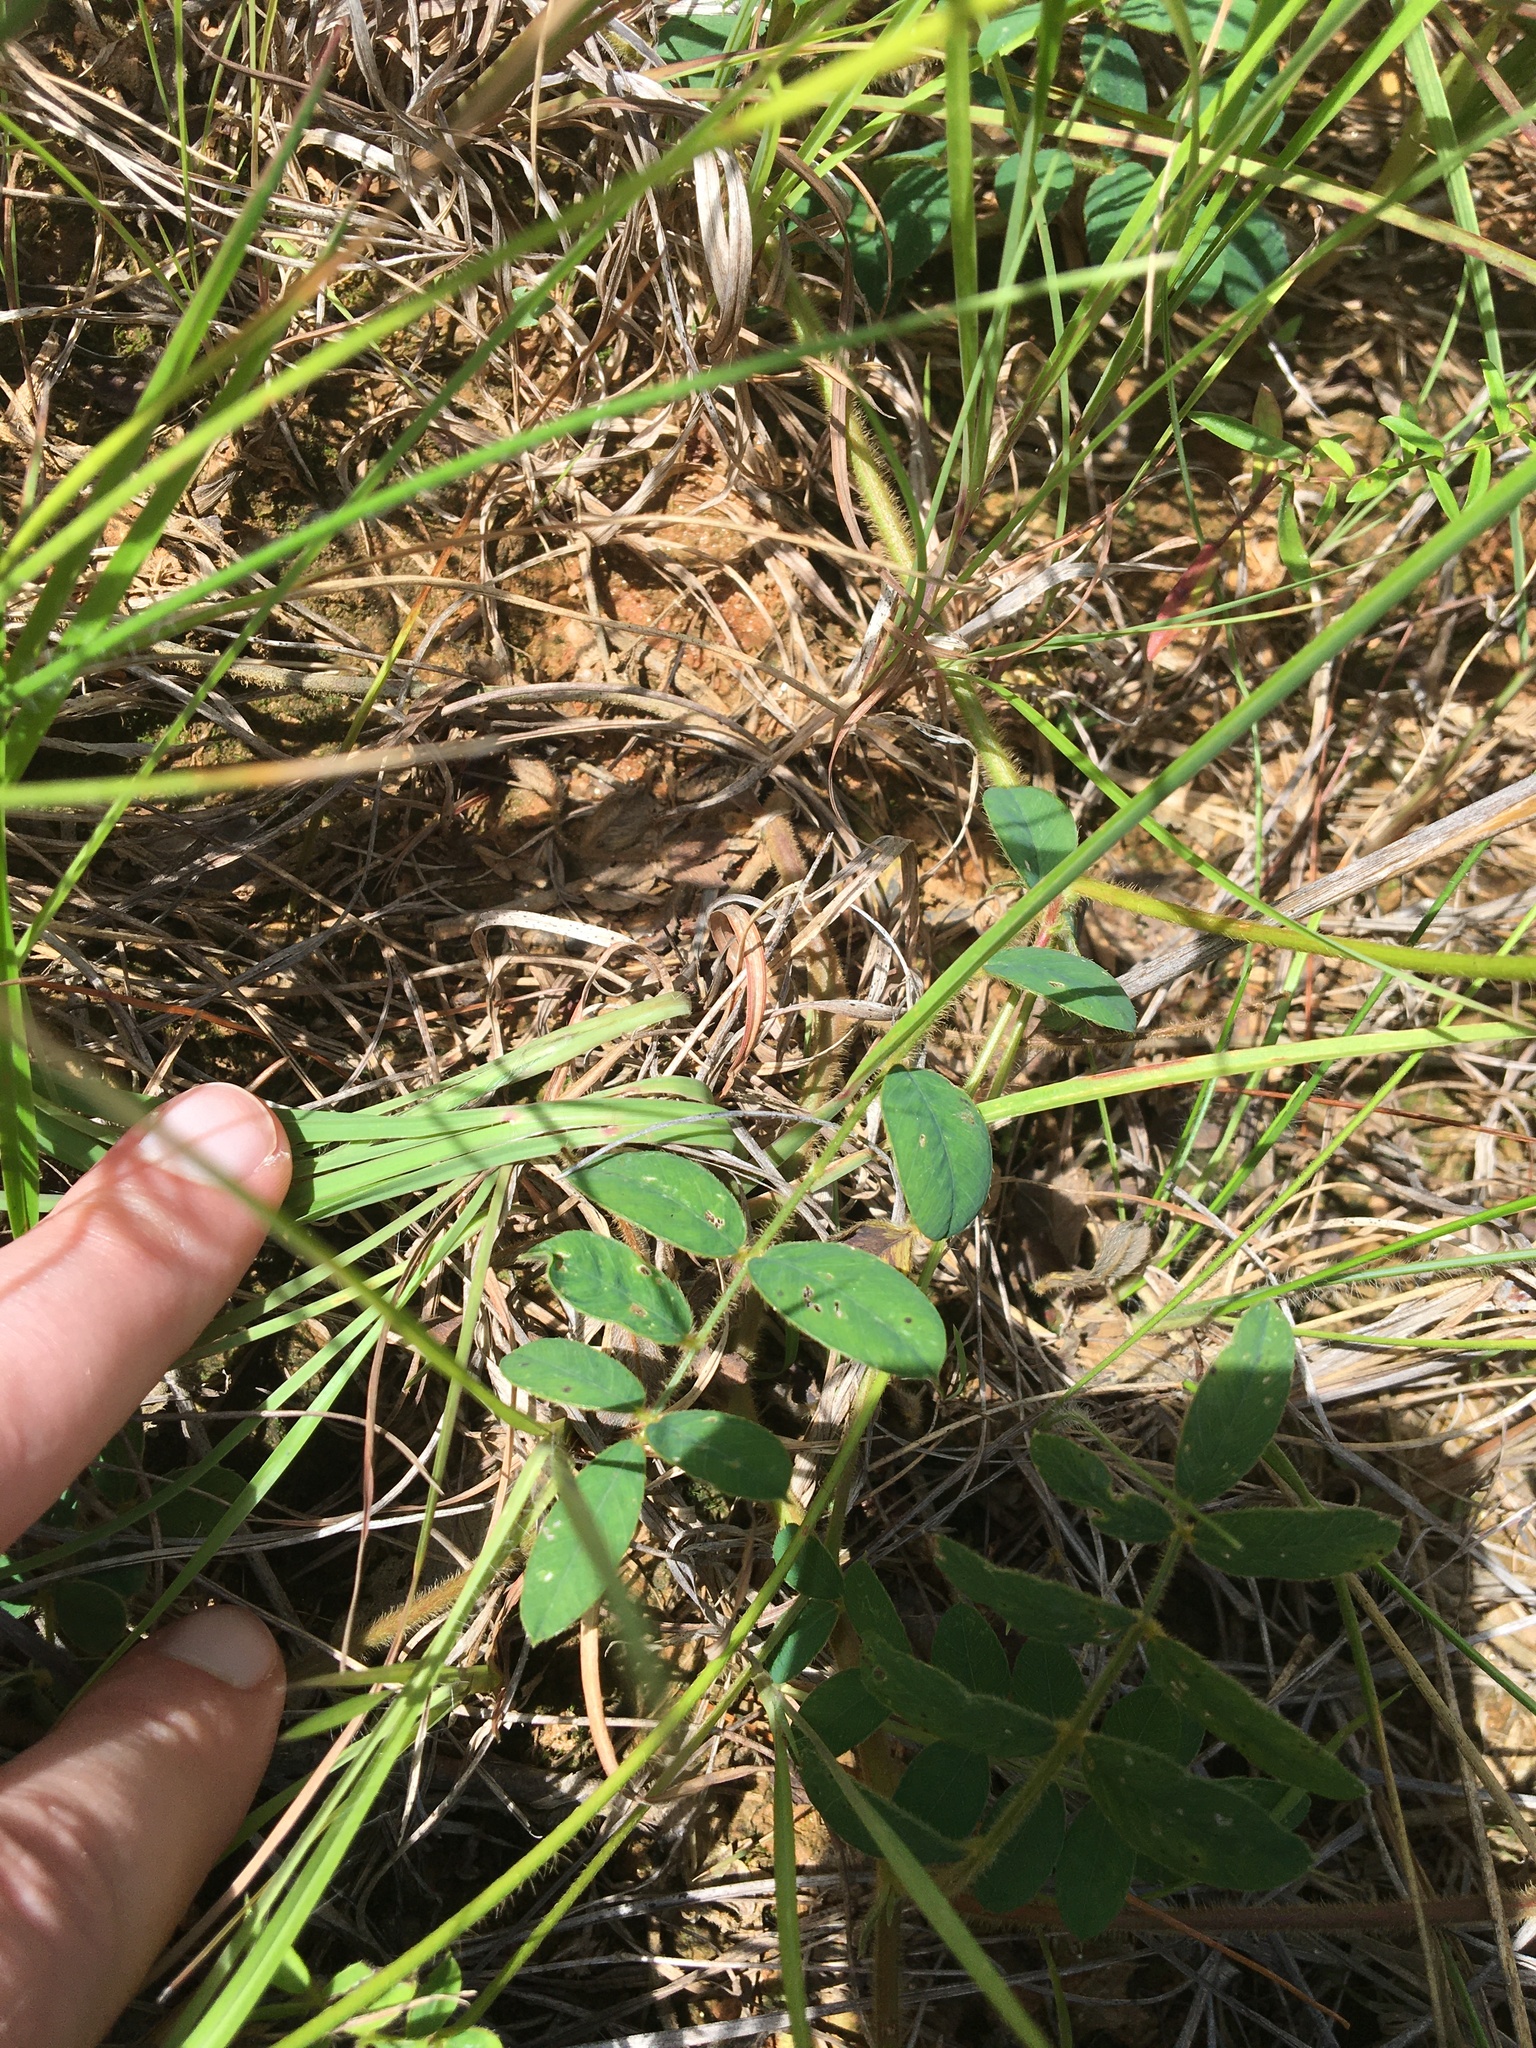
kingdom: Plantae
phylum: Tracheophyta
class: Magnoliopsida
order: Fabales
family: Fabaceae
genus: Tephrosia
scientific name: Tephrosia spicata
